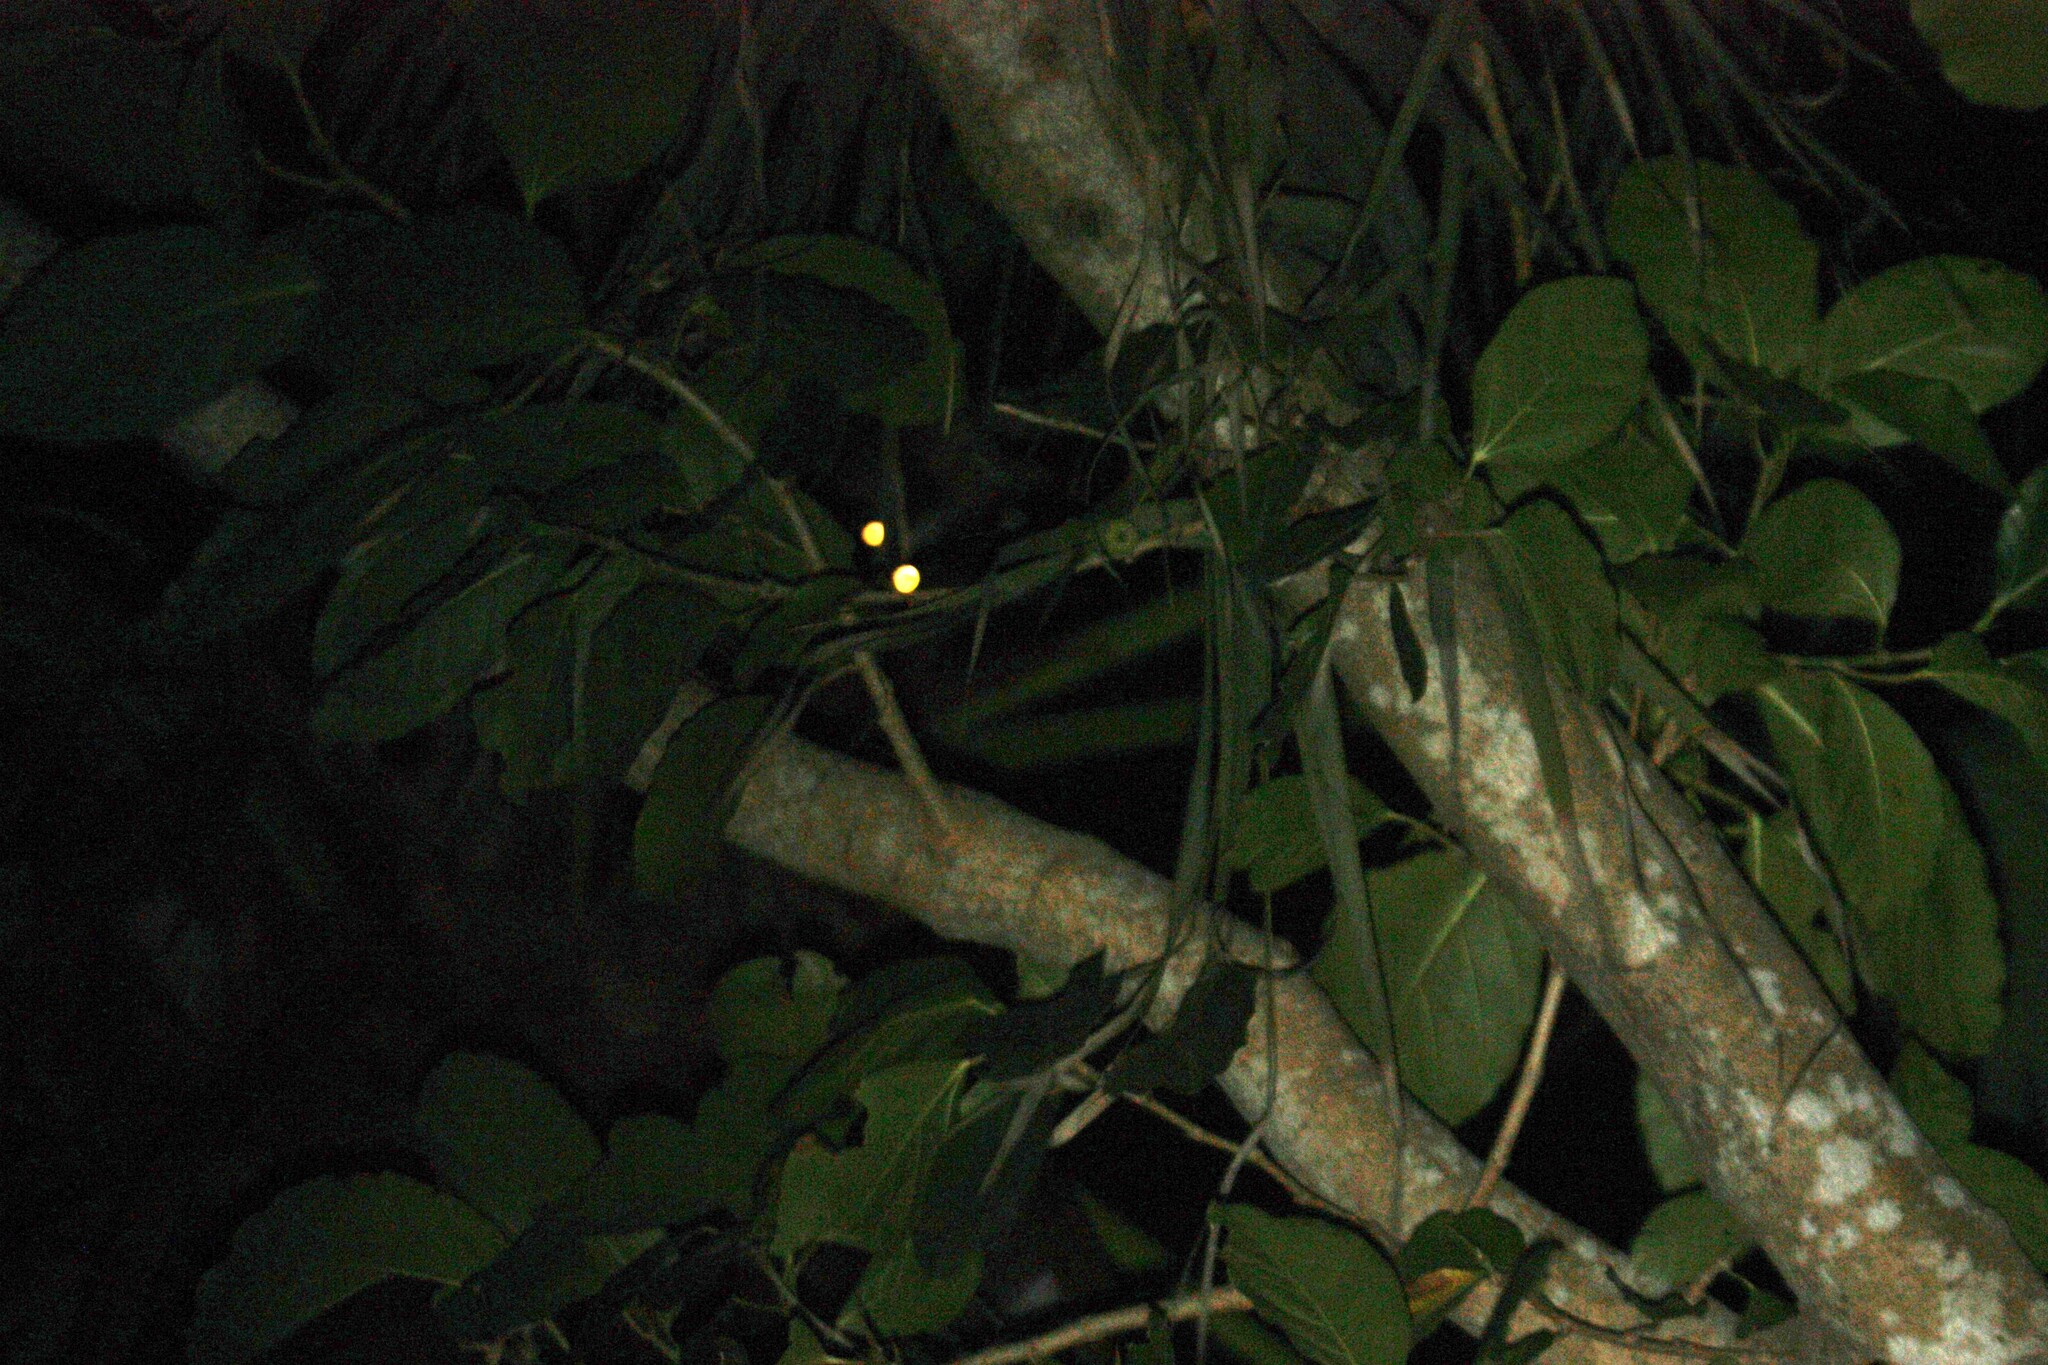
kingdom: Animalia
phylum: Chordata
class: Mammalia
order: Carnivora
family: Viverridae
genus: Paguma
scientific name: Paguma larvata
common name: Masked palm civet
